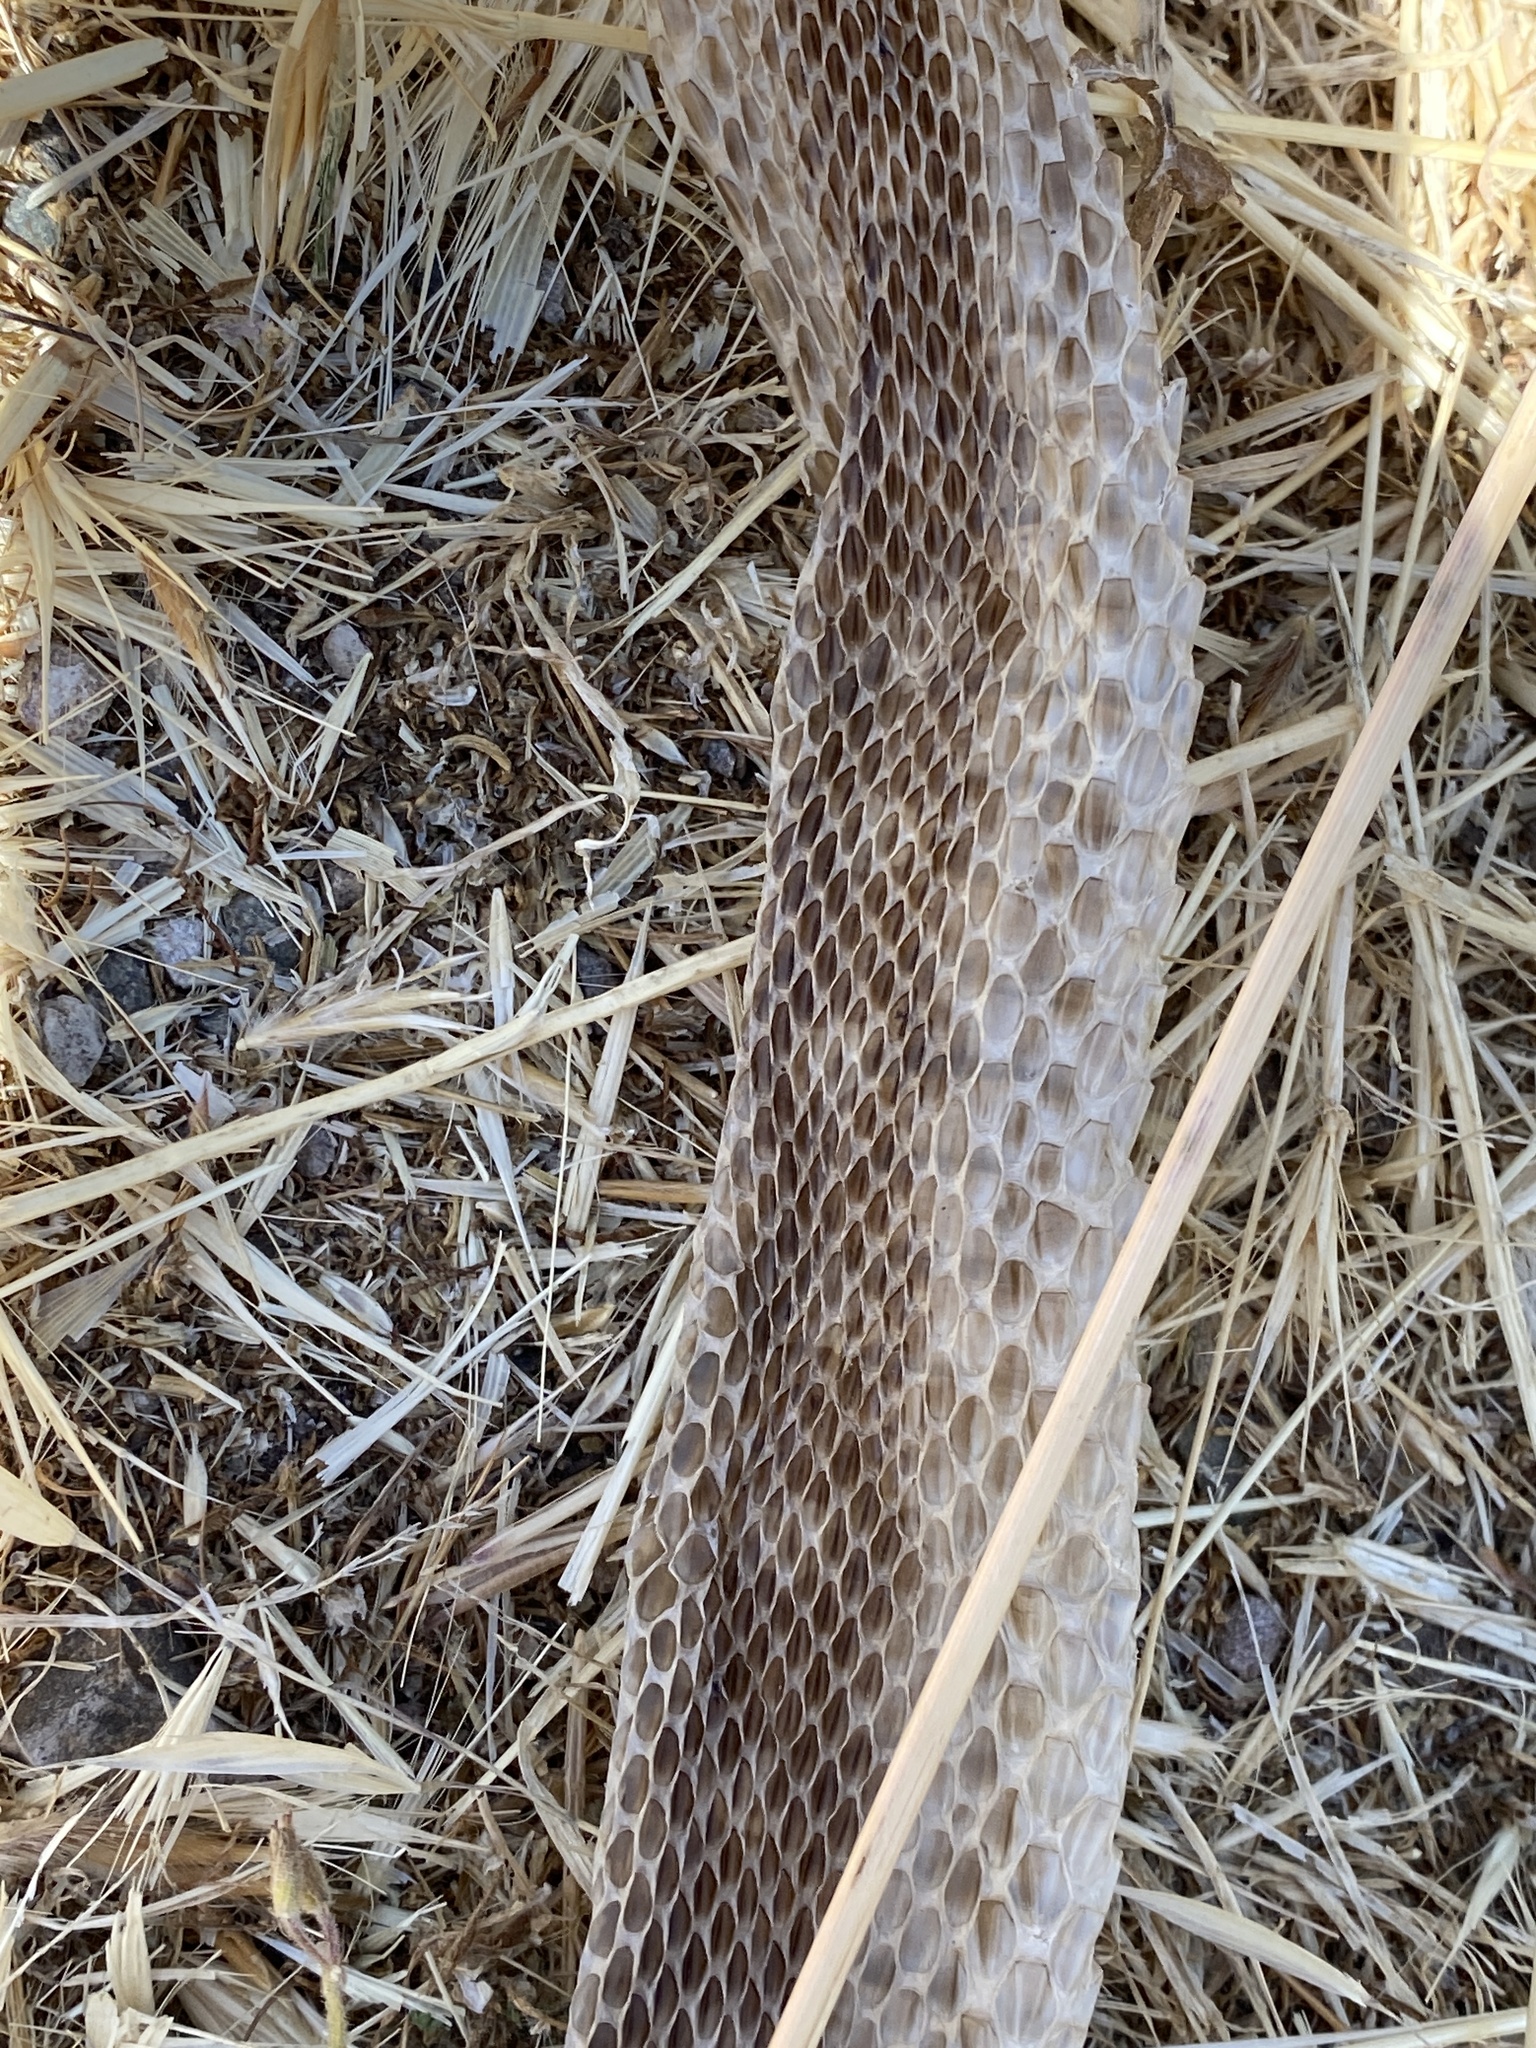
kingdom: Animalia
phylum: Chordata
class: Squamata
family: Colubridae
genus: Pituophis
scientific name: Pituophis catenifer
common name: Gopher snake
